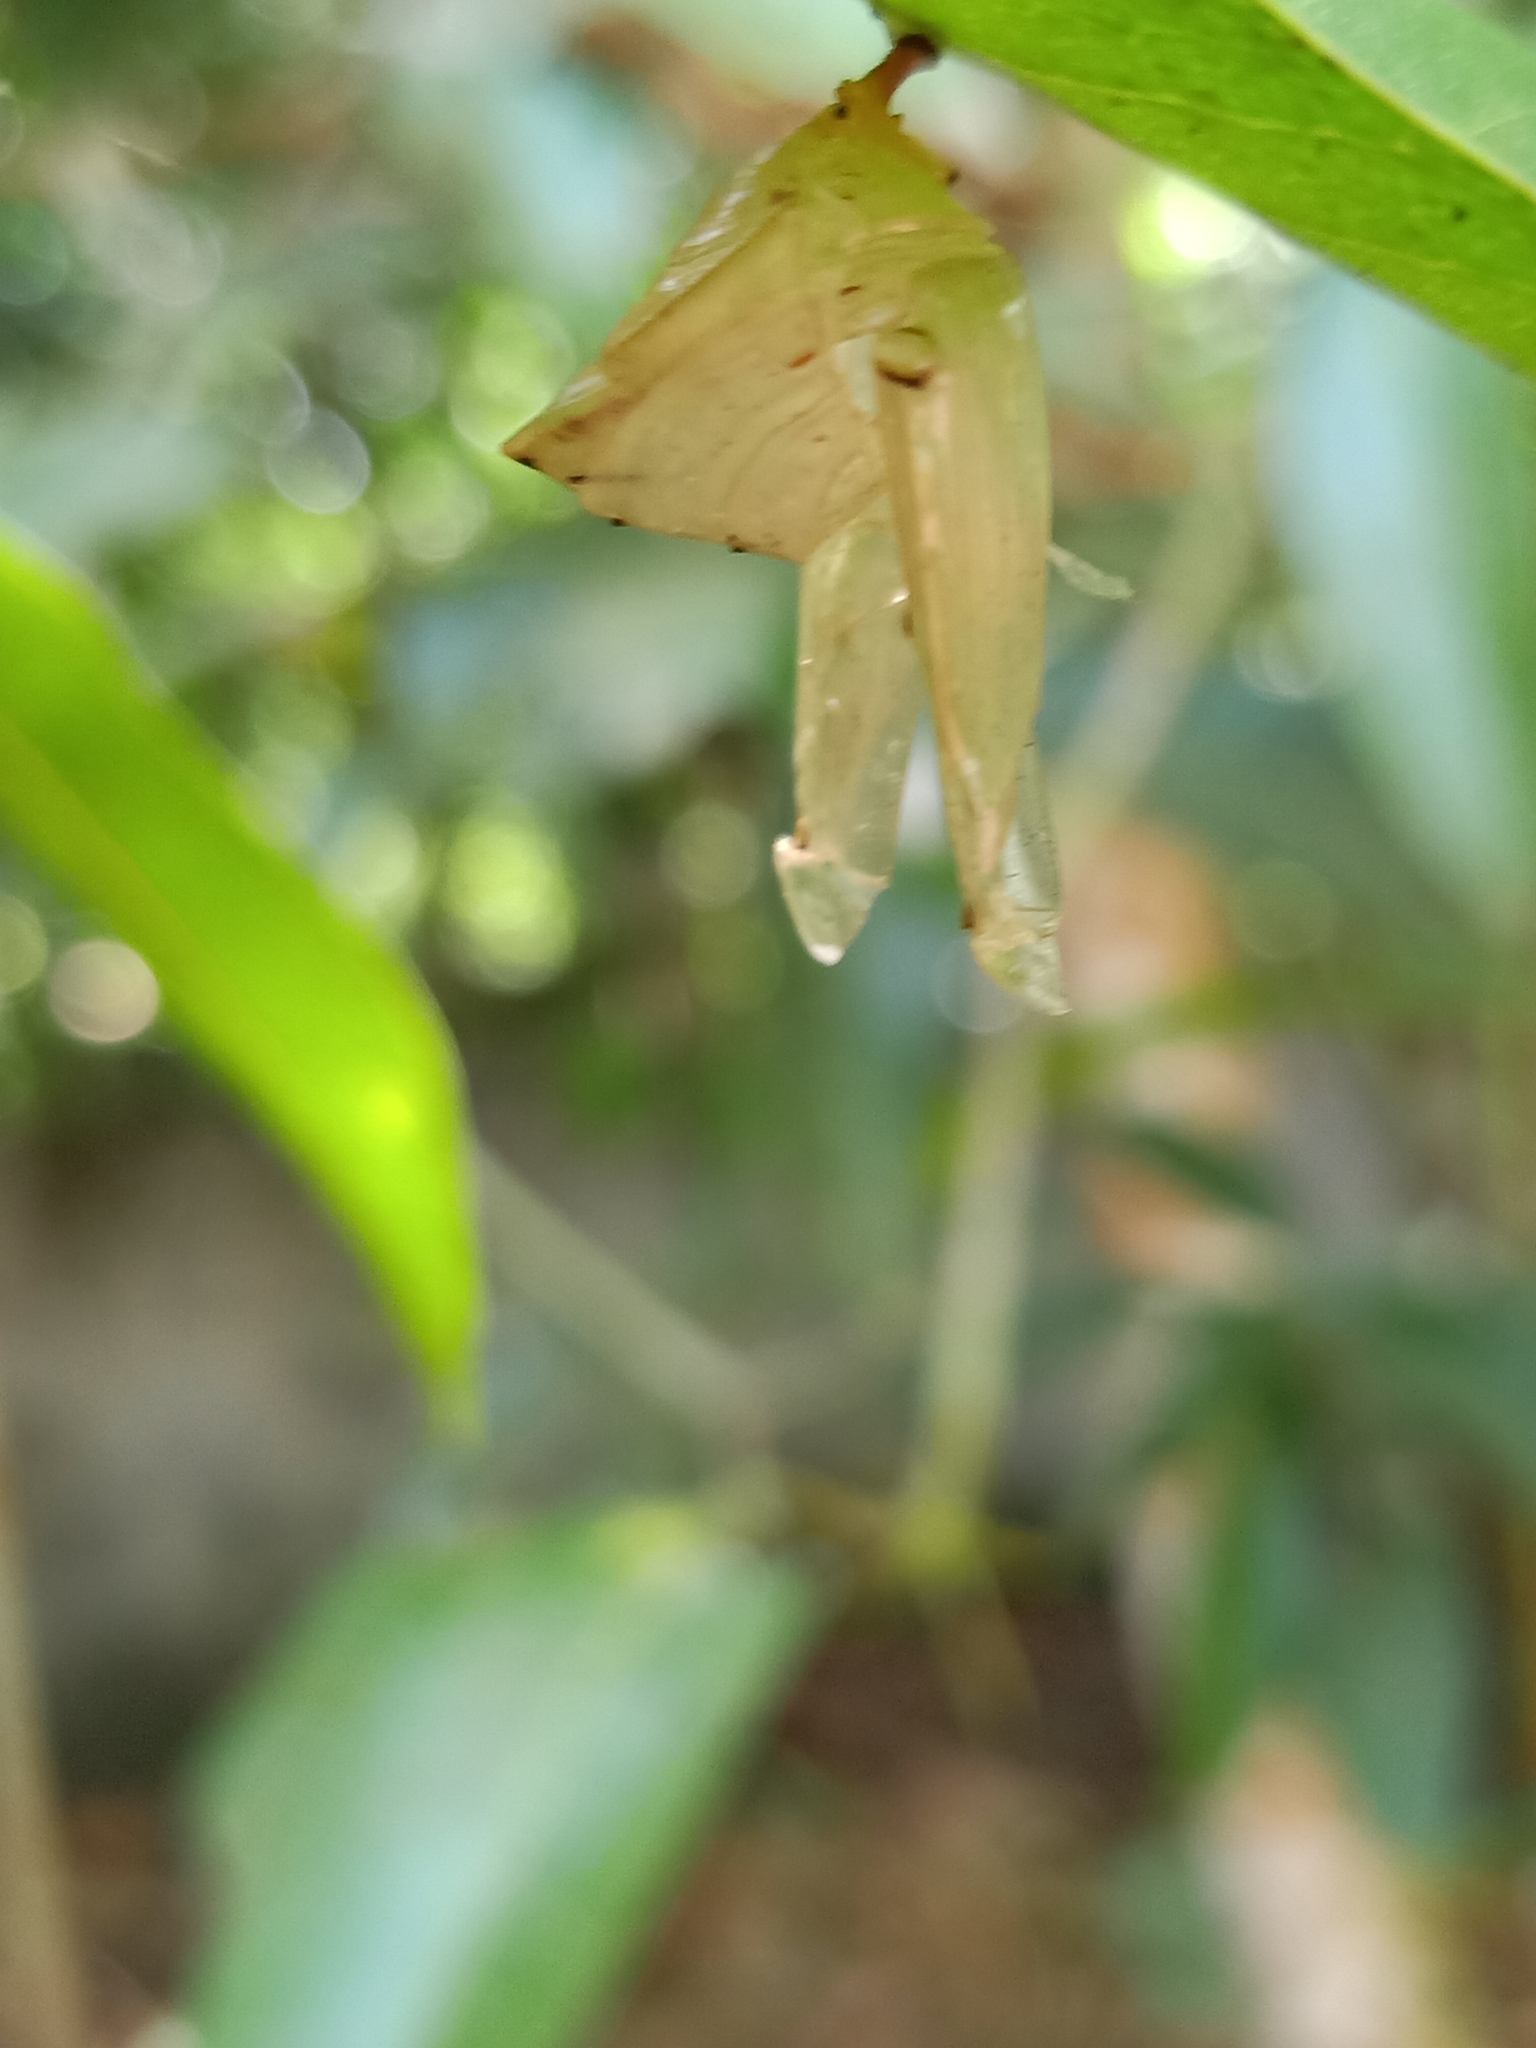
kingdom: Animalia
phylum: Arthropoda
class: Insecta
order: Lepidoptera
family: Nymphalidae
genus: Euthalia
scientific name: Euthalia aconthea
